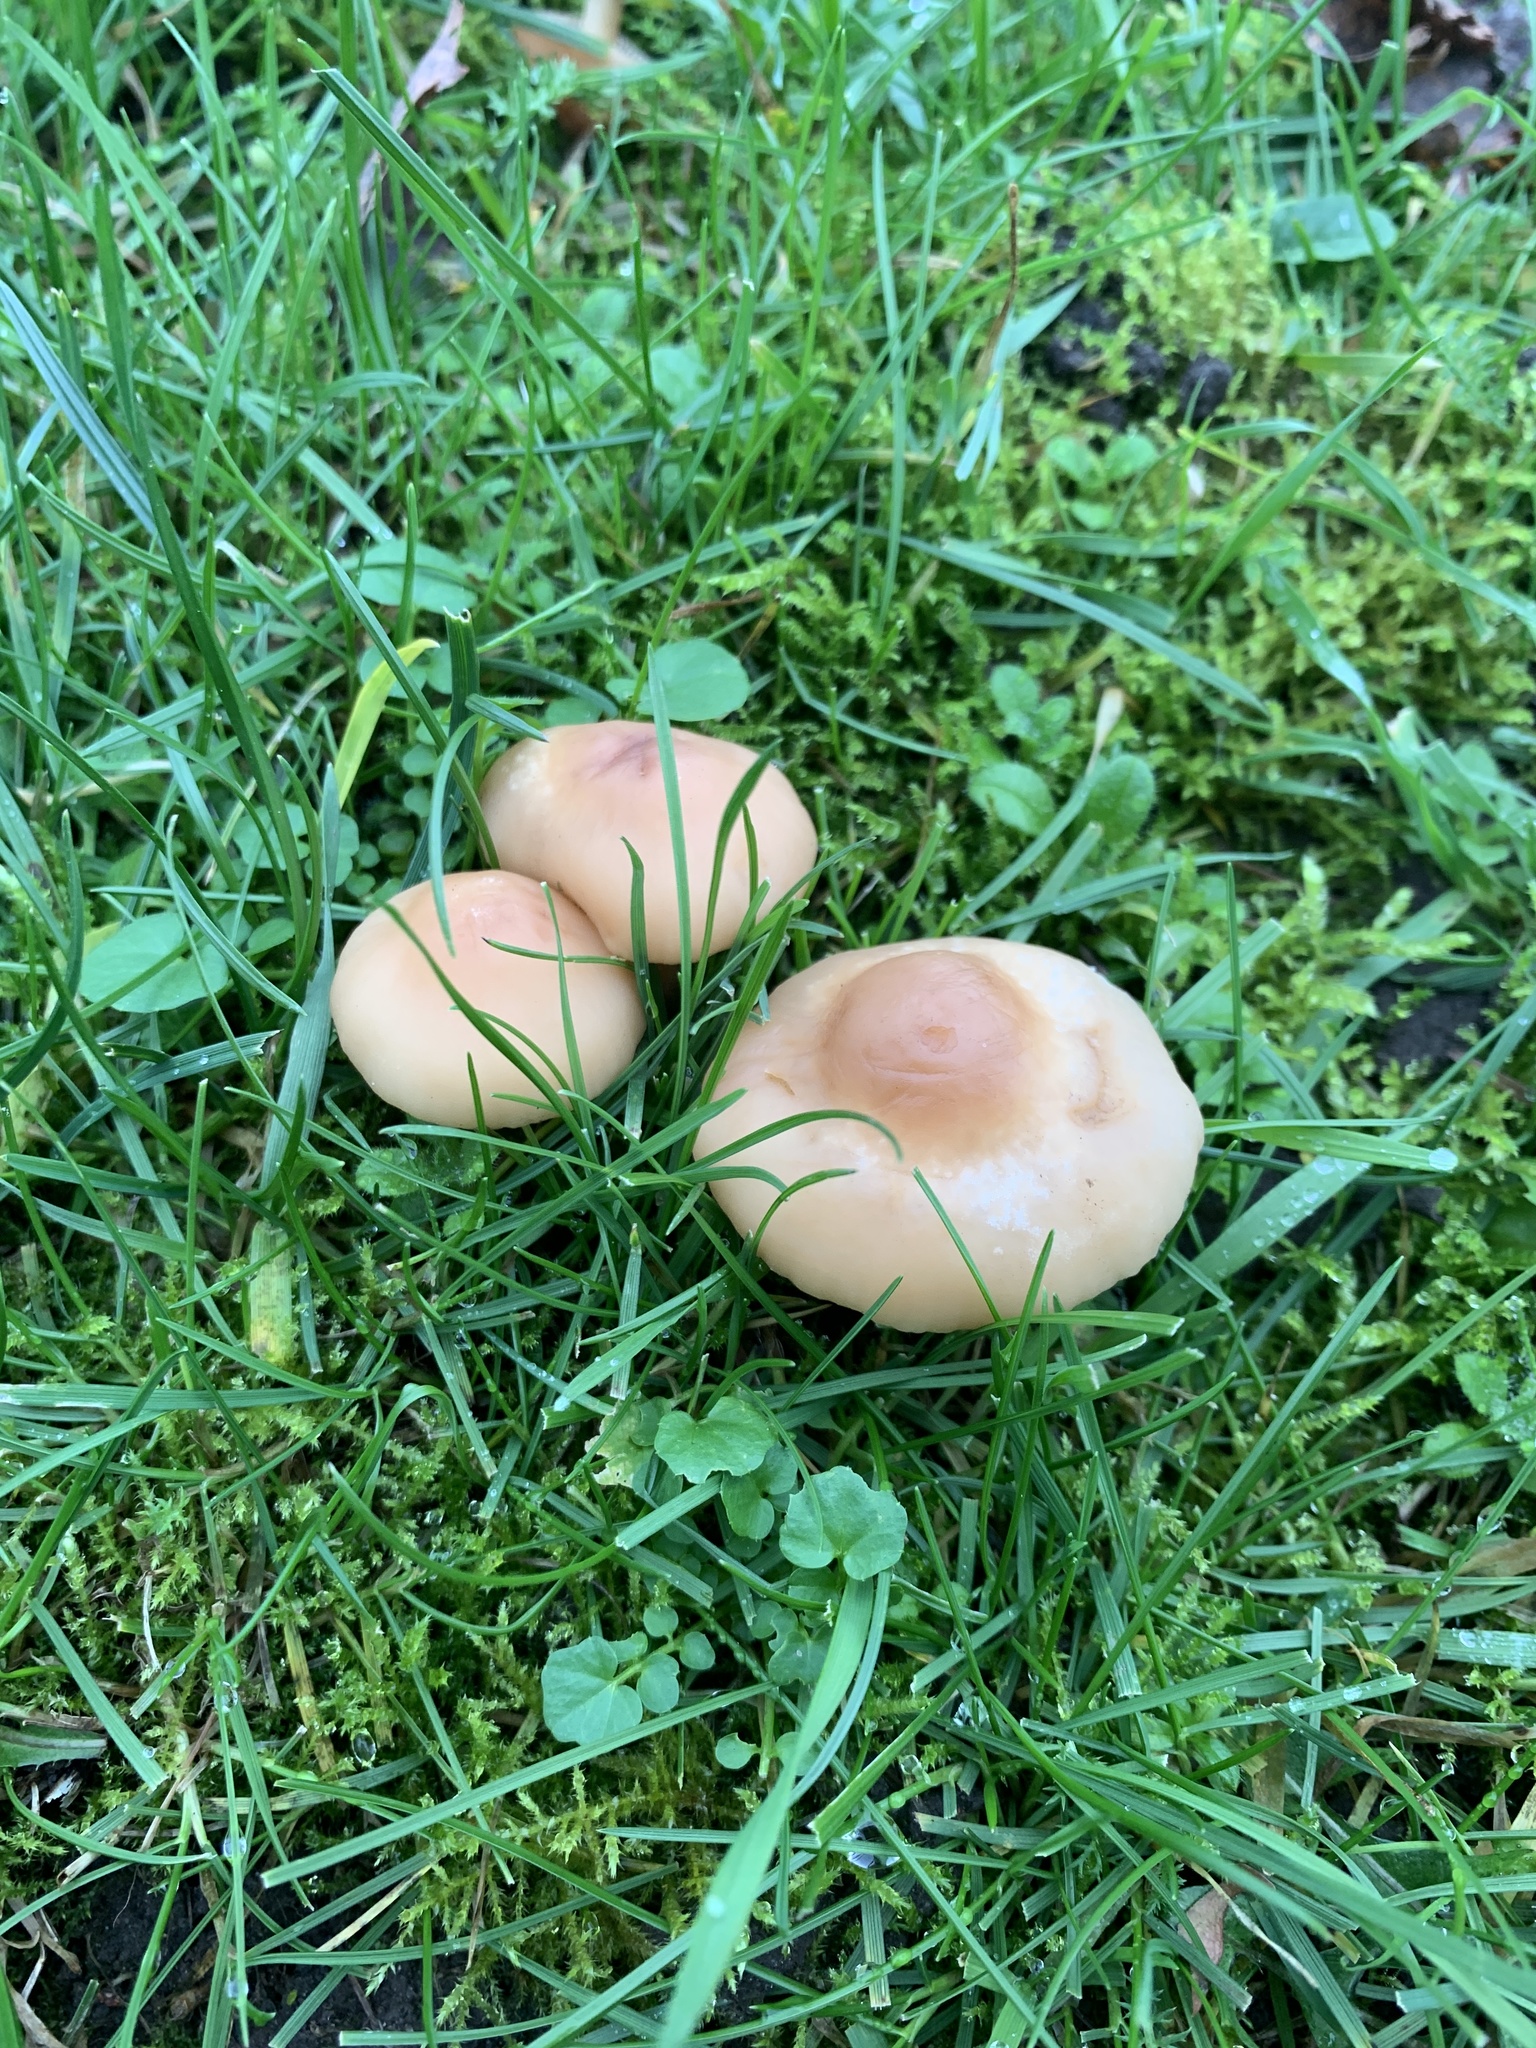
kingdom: Fungi
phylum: Basidiomycota
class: Agaricomycetes
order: Agaricales
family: Marasmiaceae
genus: Marasmius
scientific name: Marasmius oreades
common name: Fairy ring champignon
